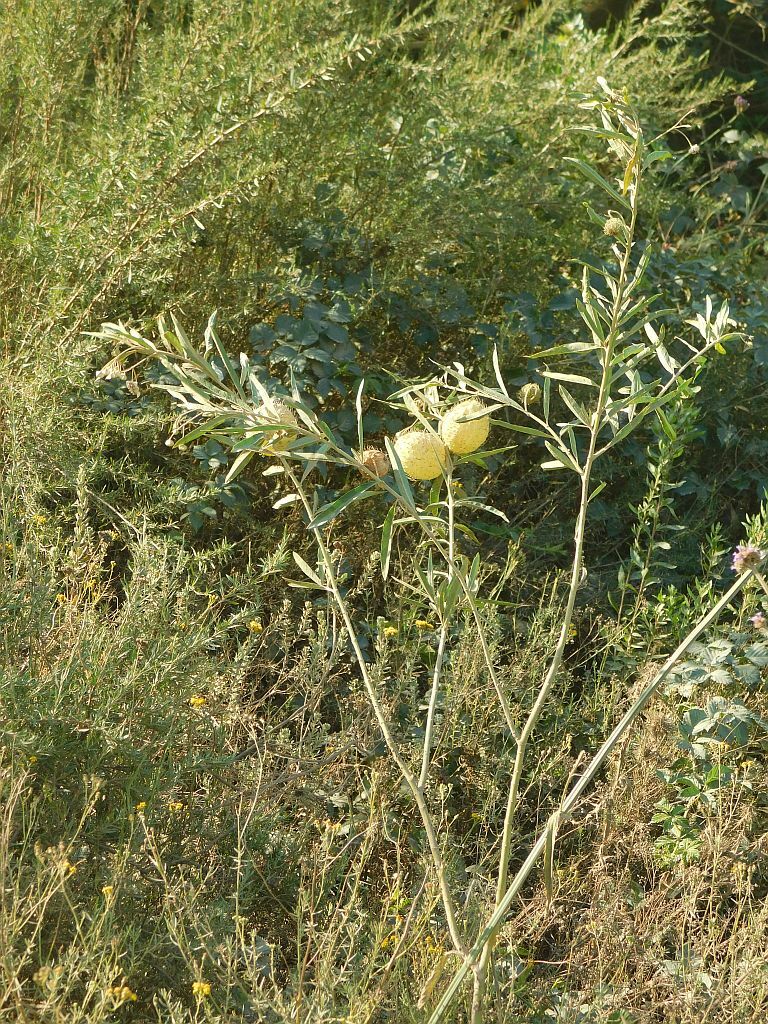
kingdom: Plantae
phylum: Tracheophyta
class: Magnoliopsida
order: Gentianales
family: Apocynaceae
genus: Gomphocarpus
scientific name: Gomphocarpus physocarpus
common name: Balloon cotton bush
